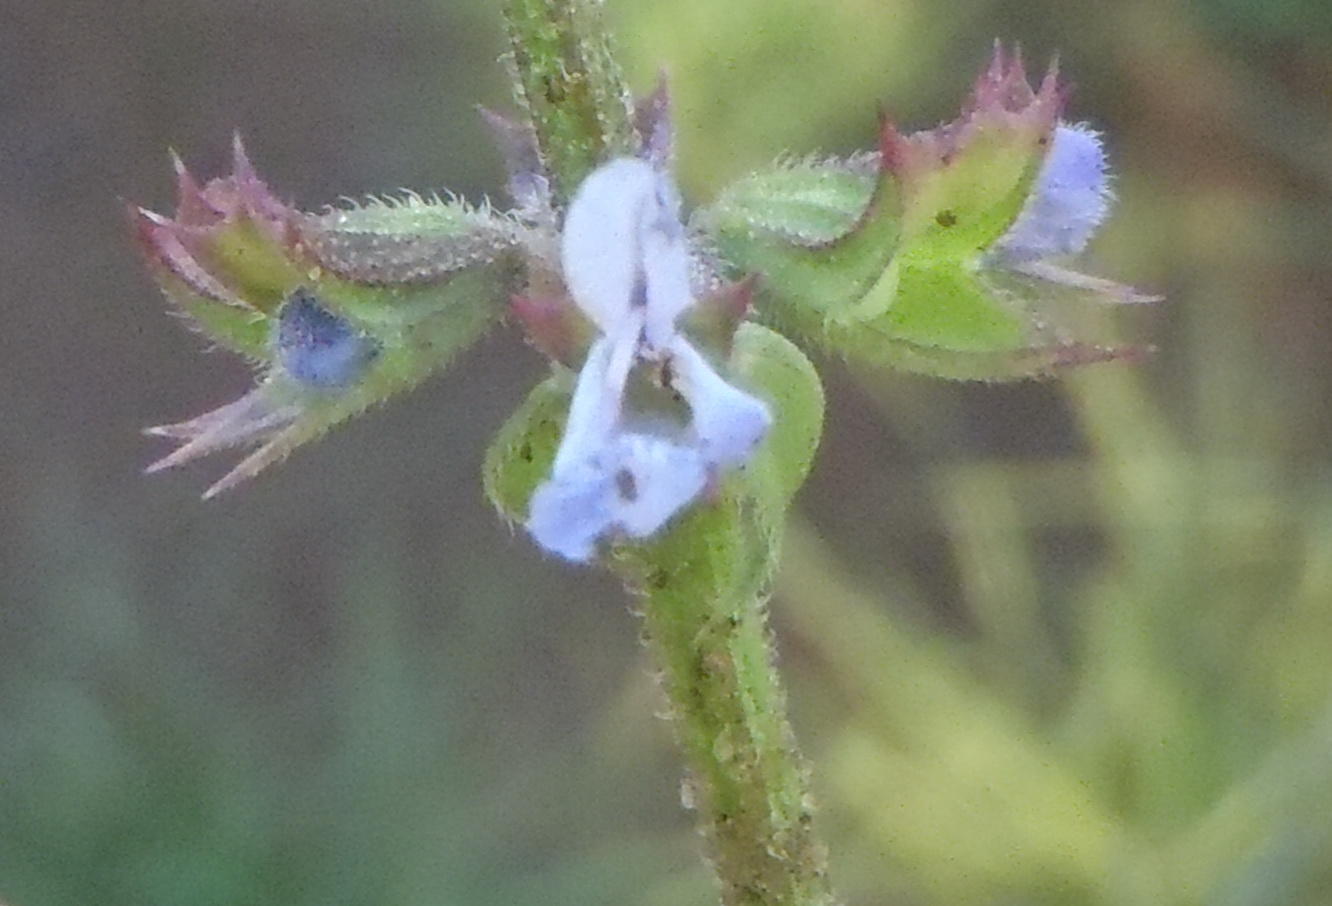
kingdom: Plantae
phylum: Tracheophyta
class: Magnoliopsida
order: Lamiales
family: Lamiaceae
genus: Salvia
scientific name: Salvia runcinata
